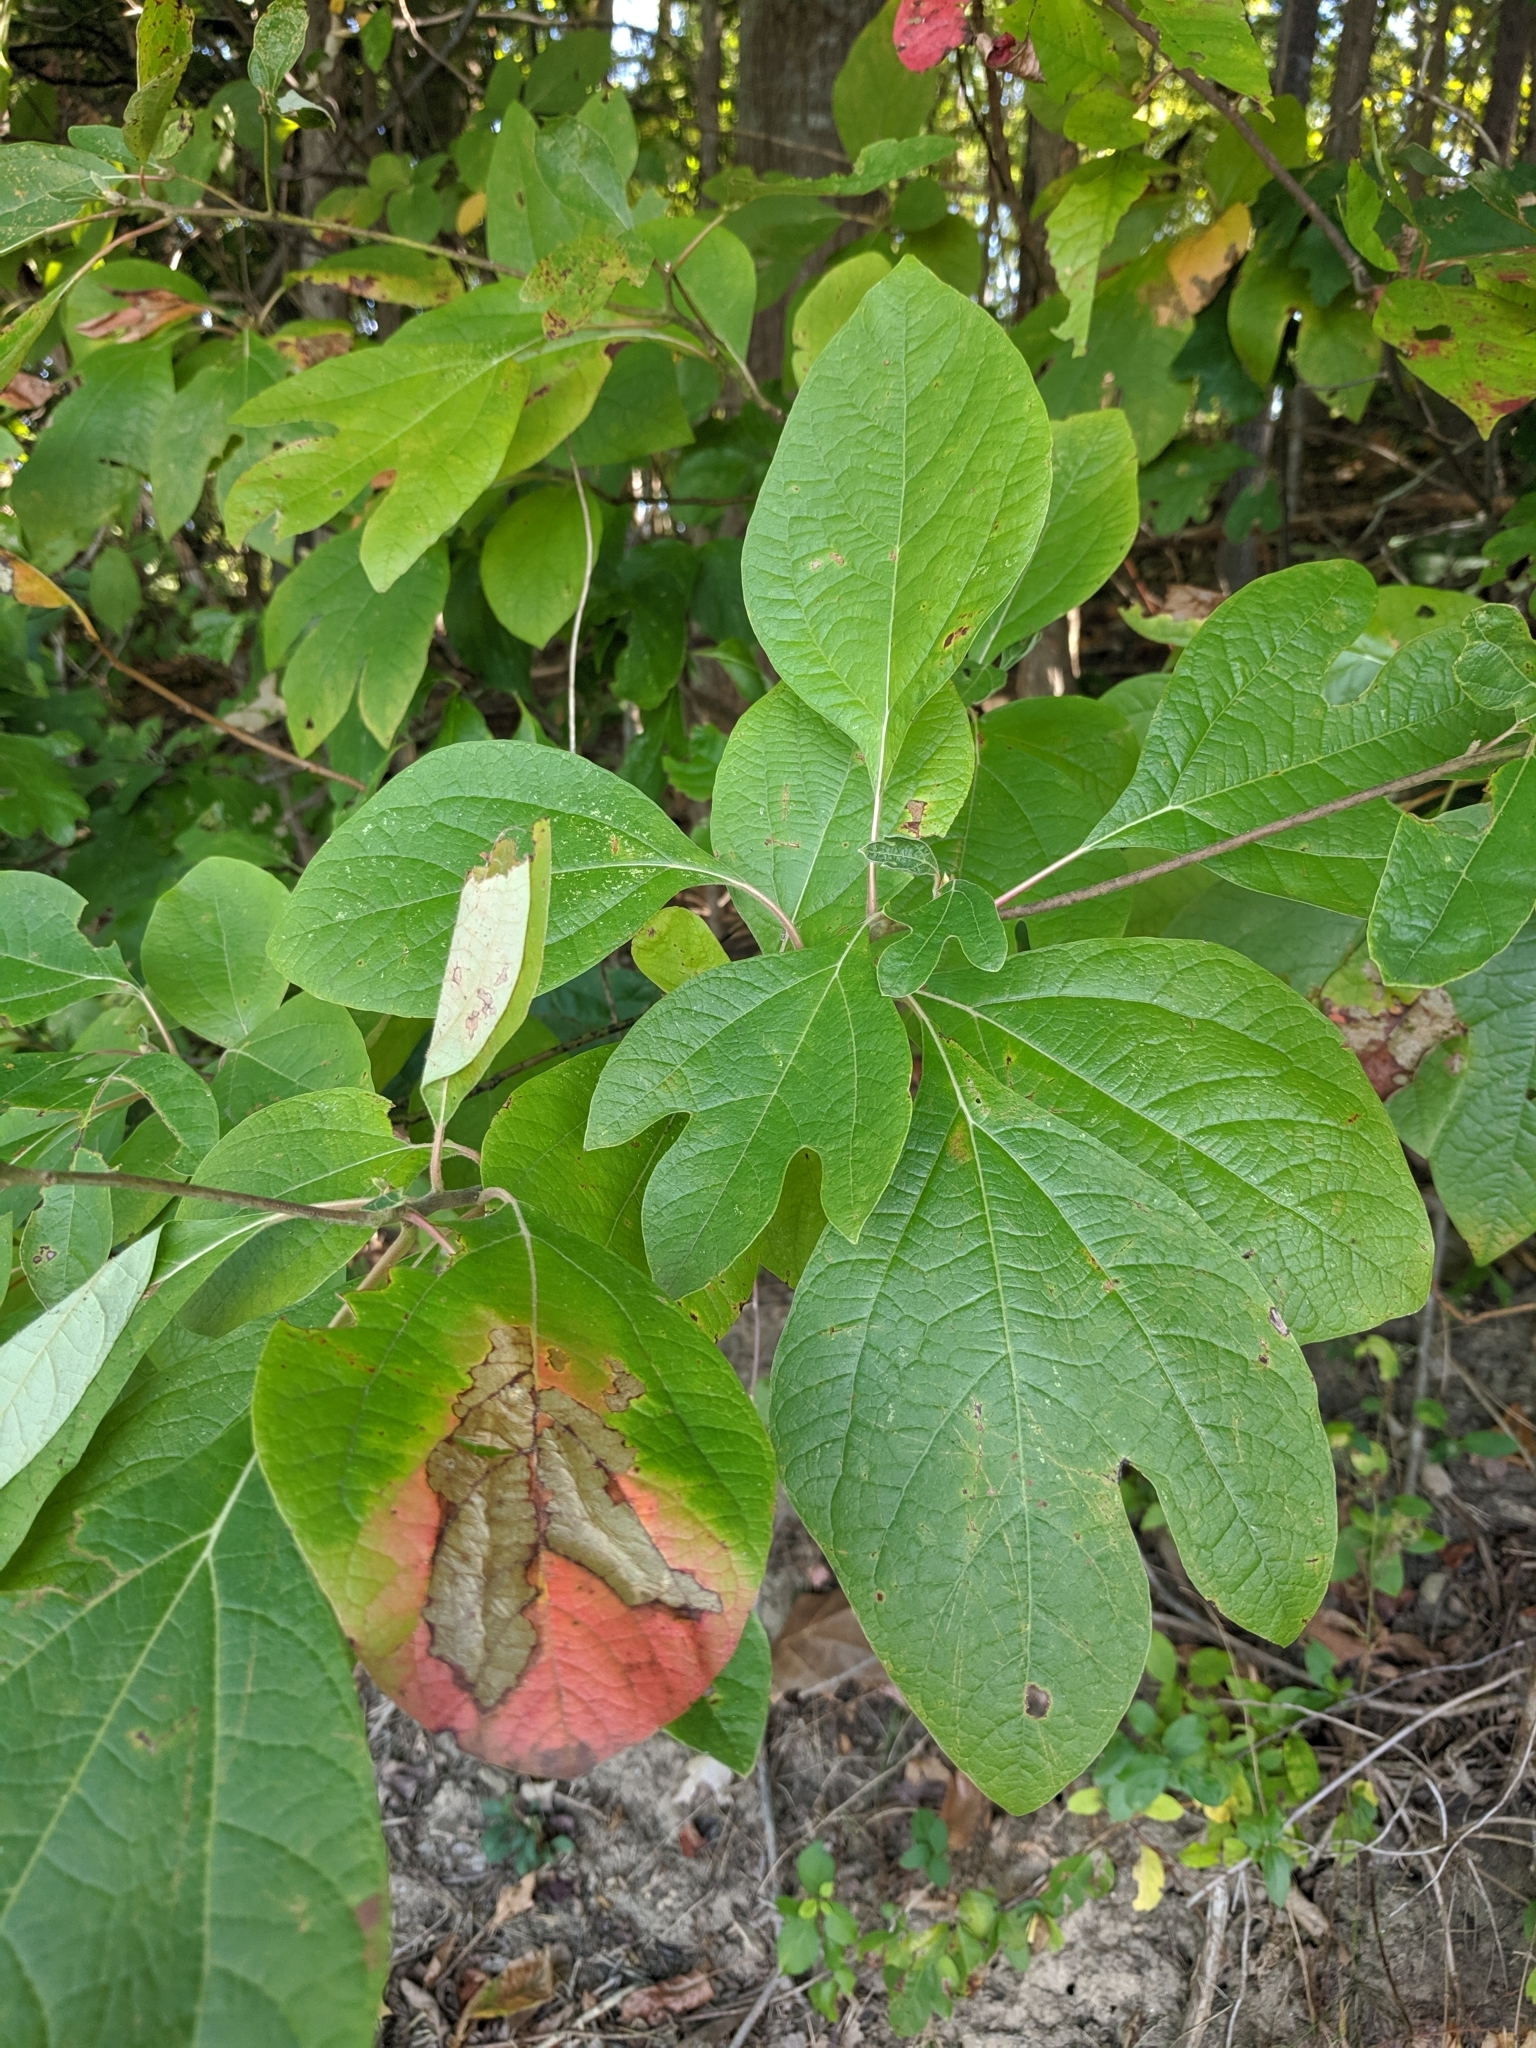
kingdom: Plantae
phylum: Tracheophyta
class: Magnoliopsida
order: Laurales
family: Lauraceae
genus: Sassafras
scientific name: Sassafras albidum
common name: Sassafras
